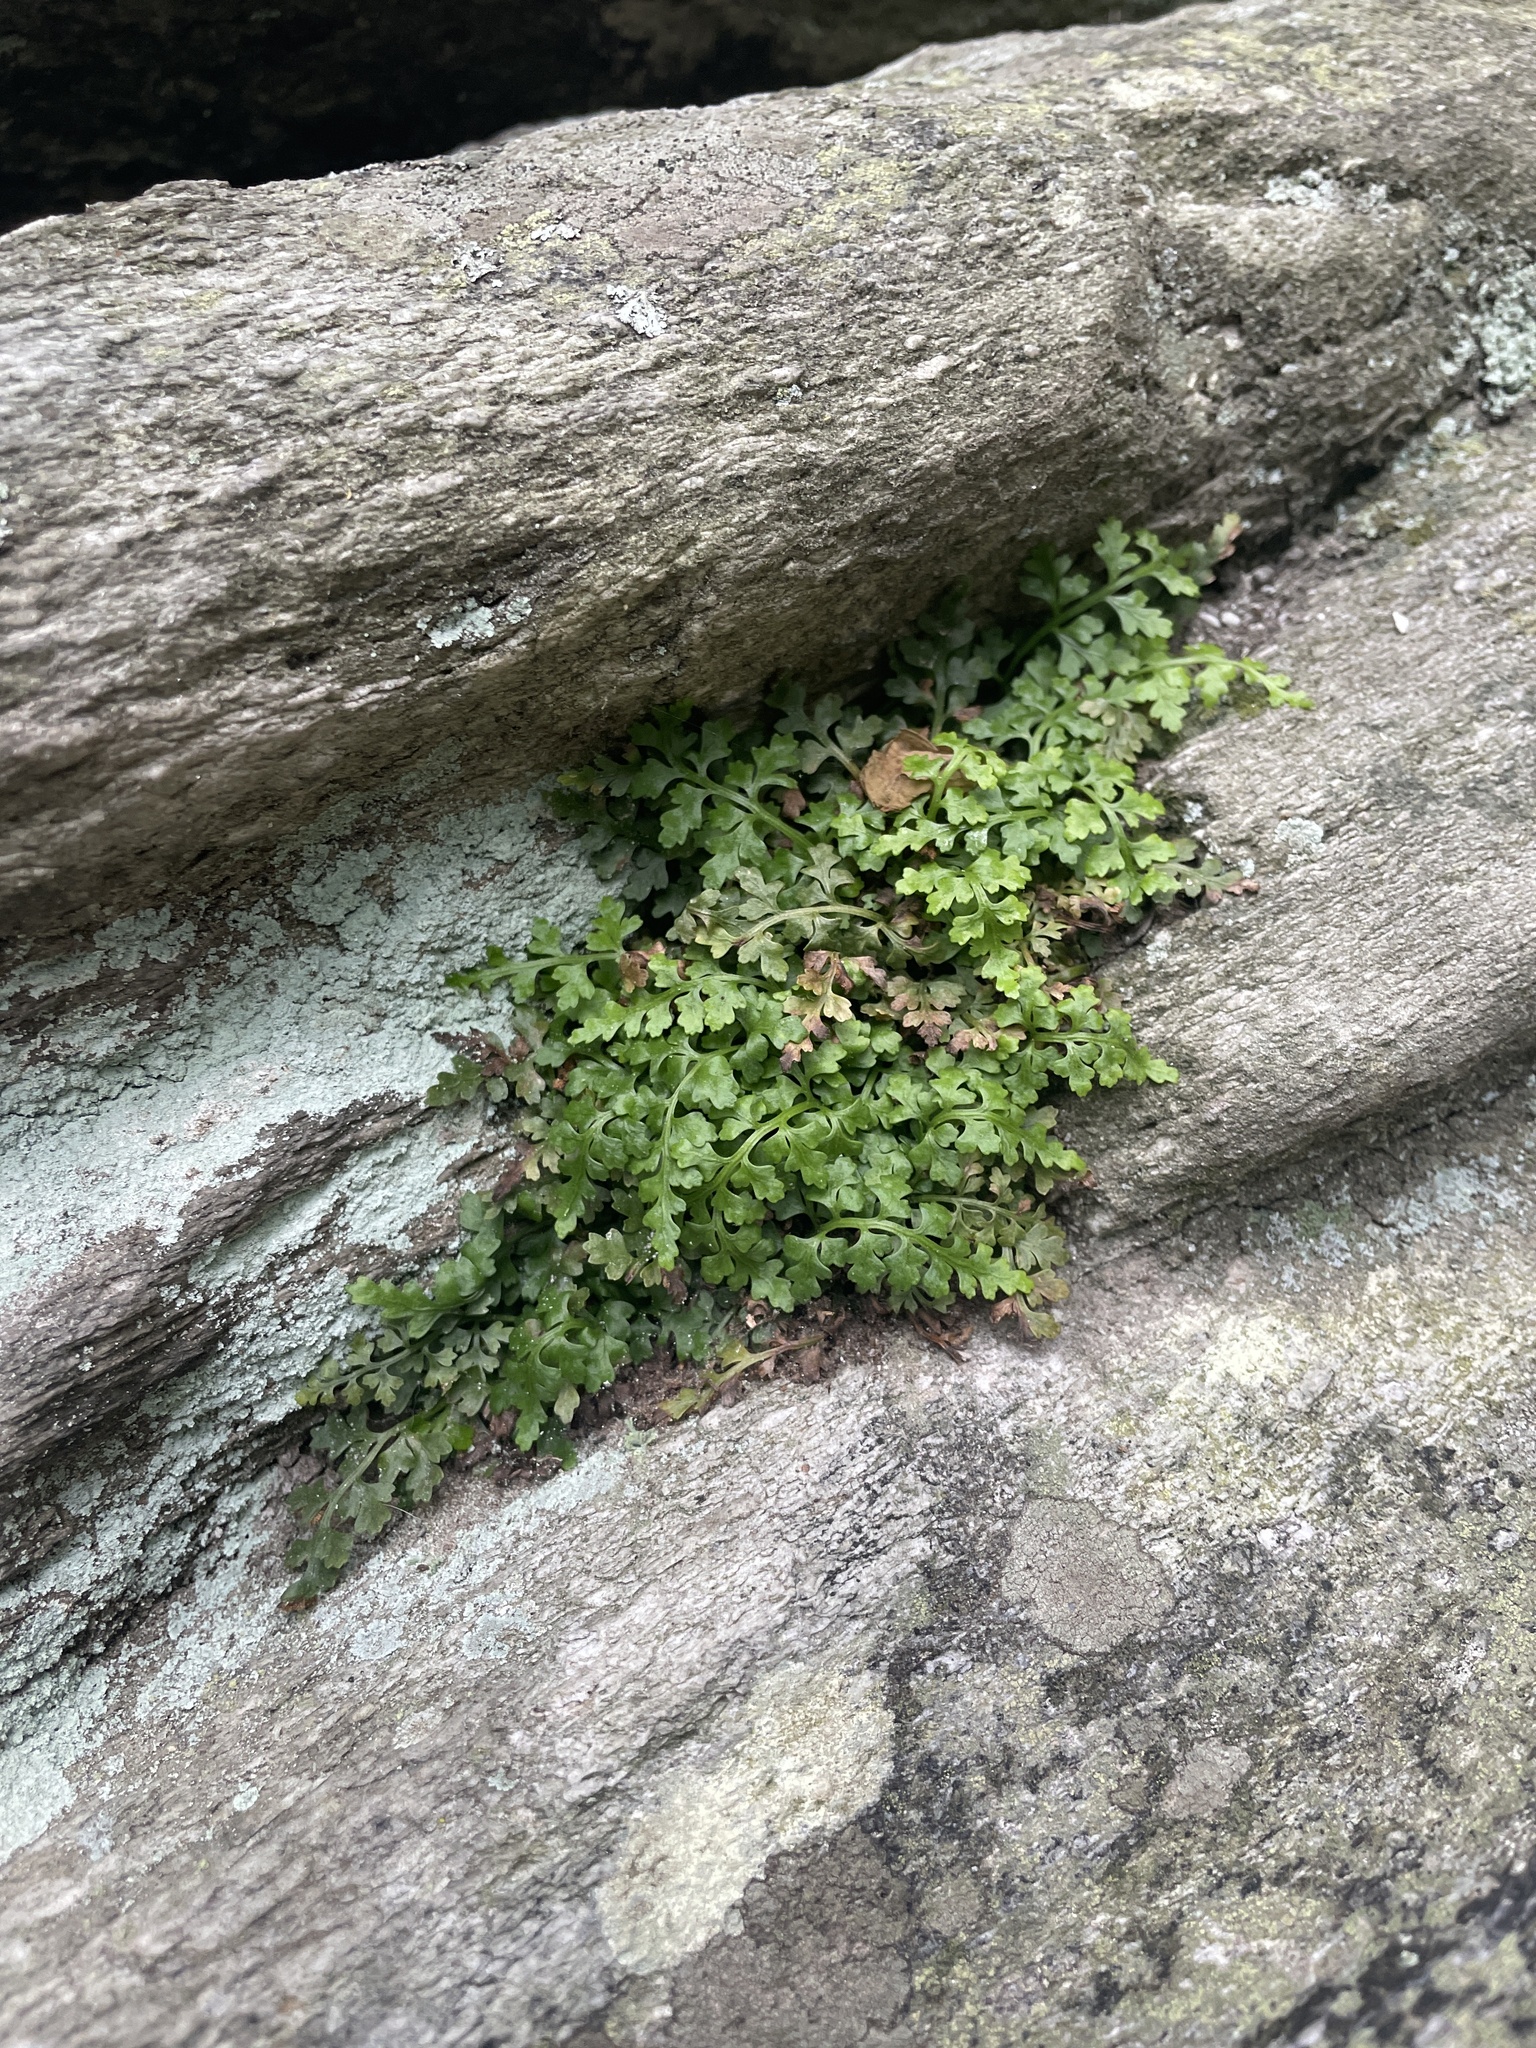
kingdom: Plantae
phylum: Tracheophyta
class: Polypodiopsida
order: Polypodiales
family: Aspleniaceae
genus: Asplenium
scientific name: Asplenium montanum
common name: Mountain spleenwort
